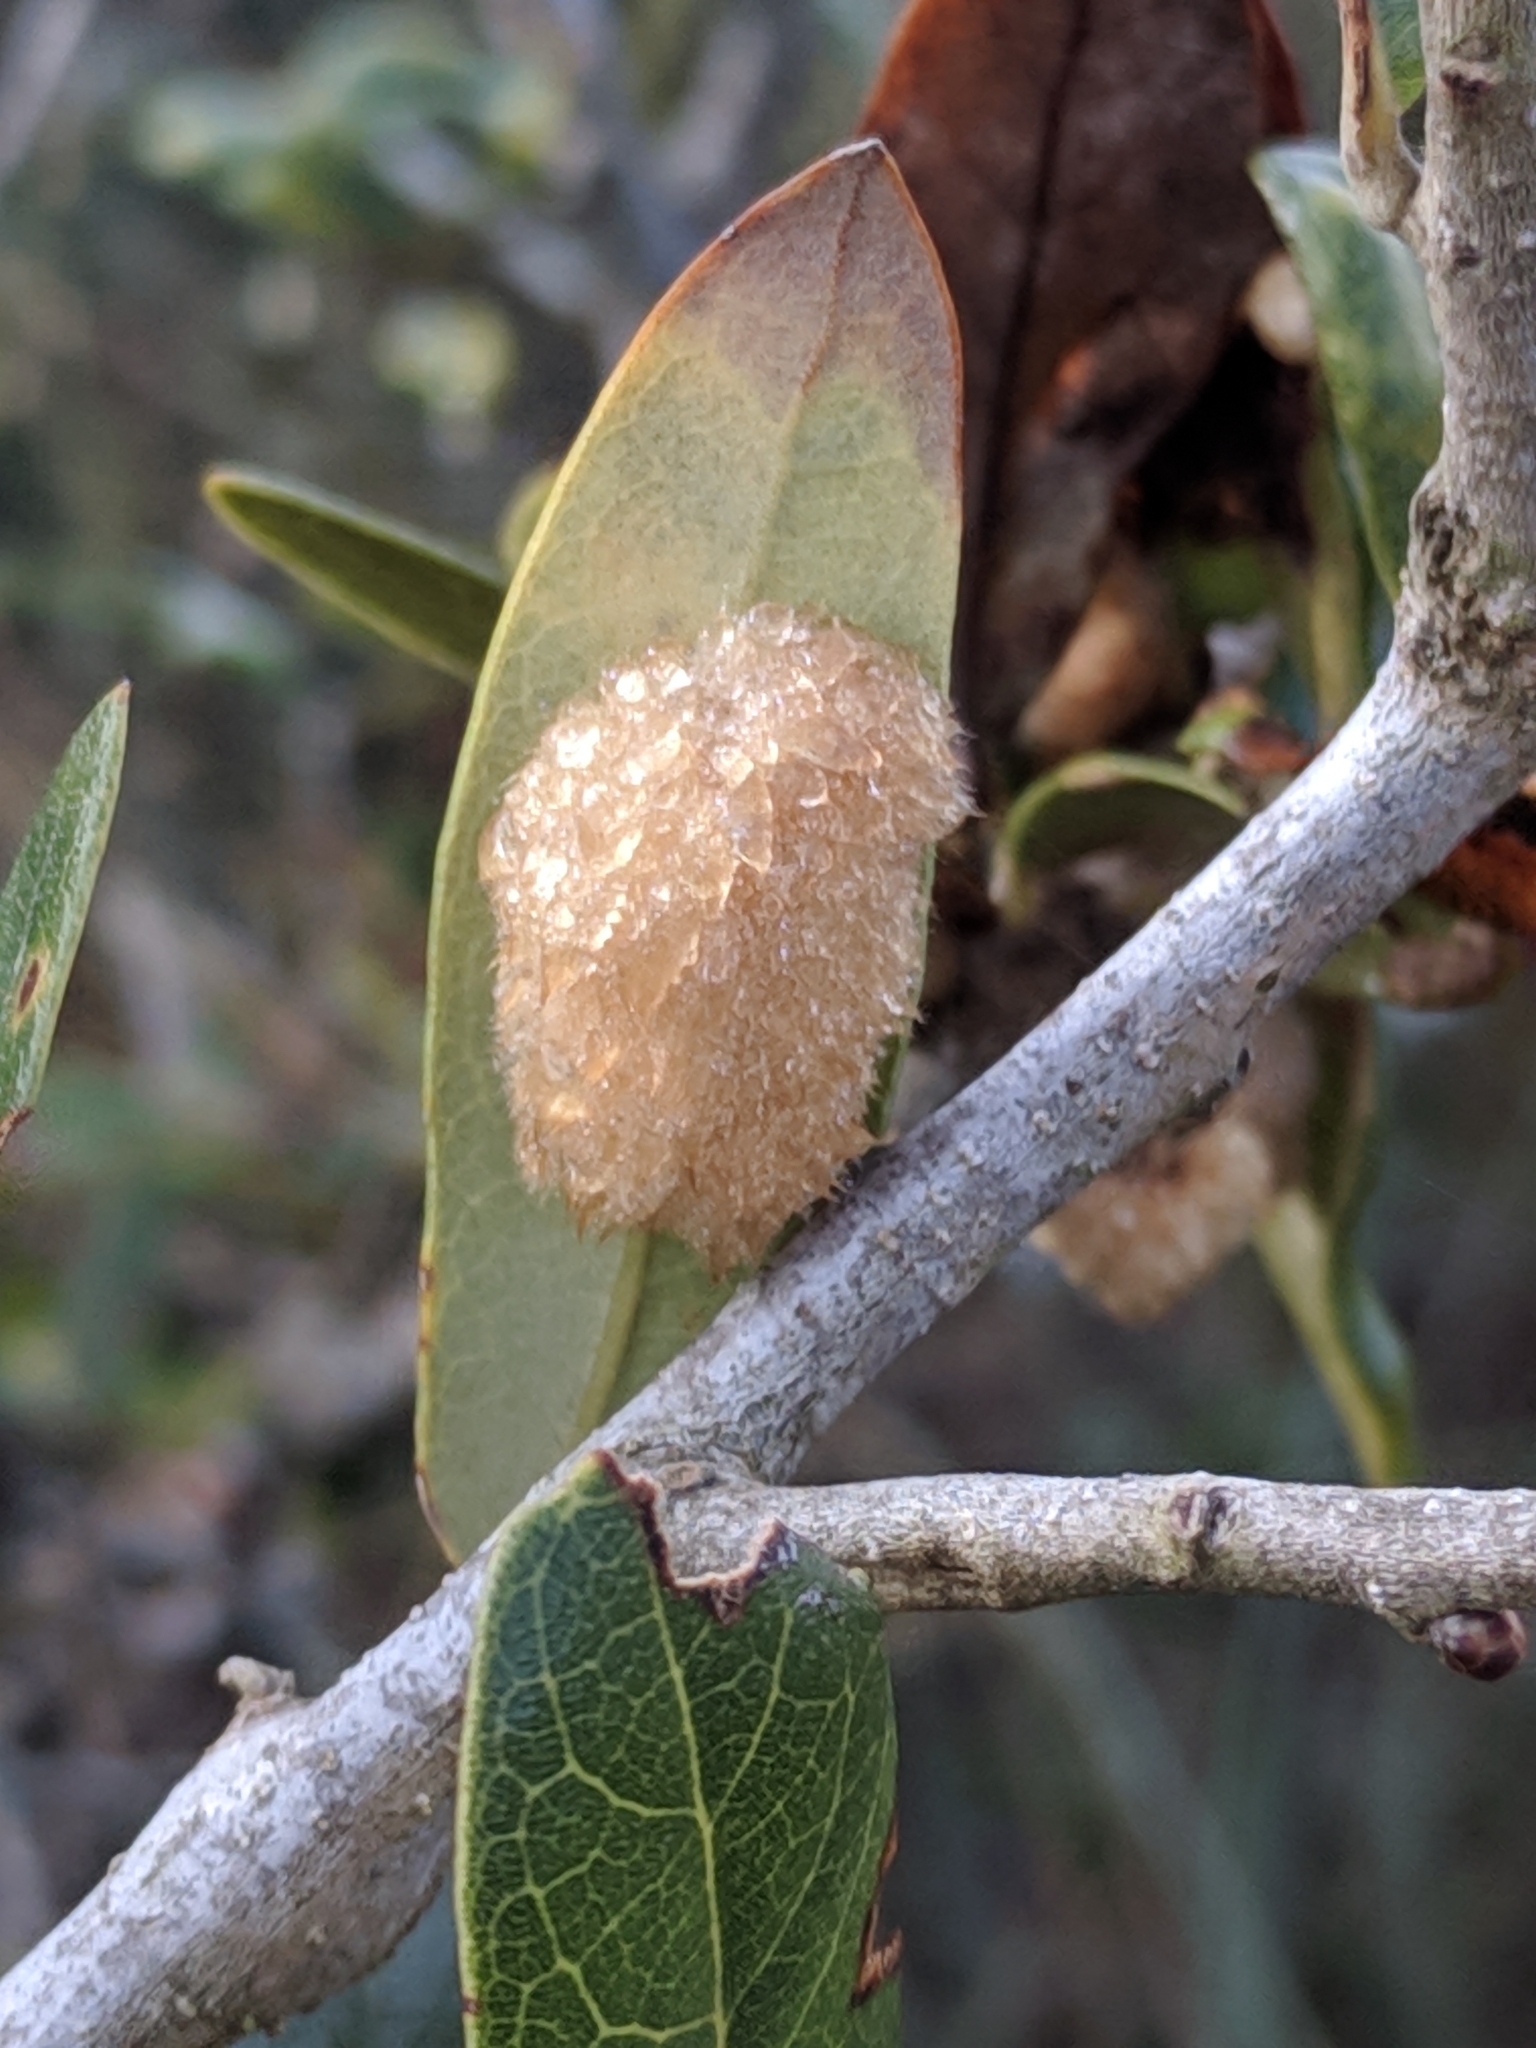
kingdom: Animalia
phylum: Arthropoda
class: Insecta
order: Hymenoptera
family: Cynipidae
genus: Andricus
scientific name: Andricus Druon quercuslanigerum
